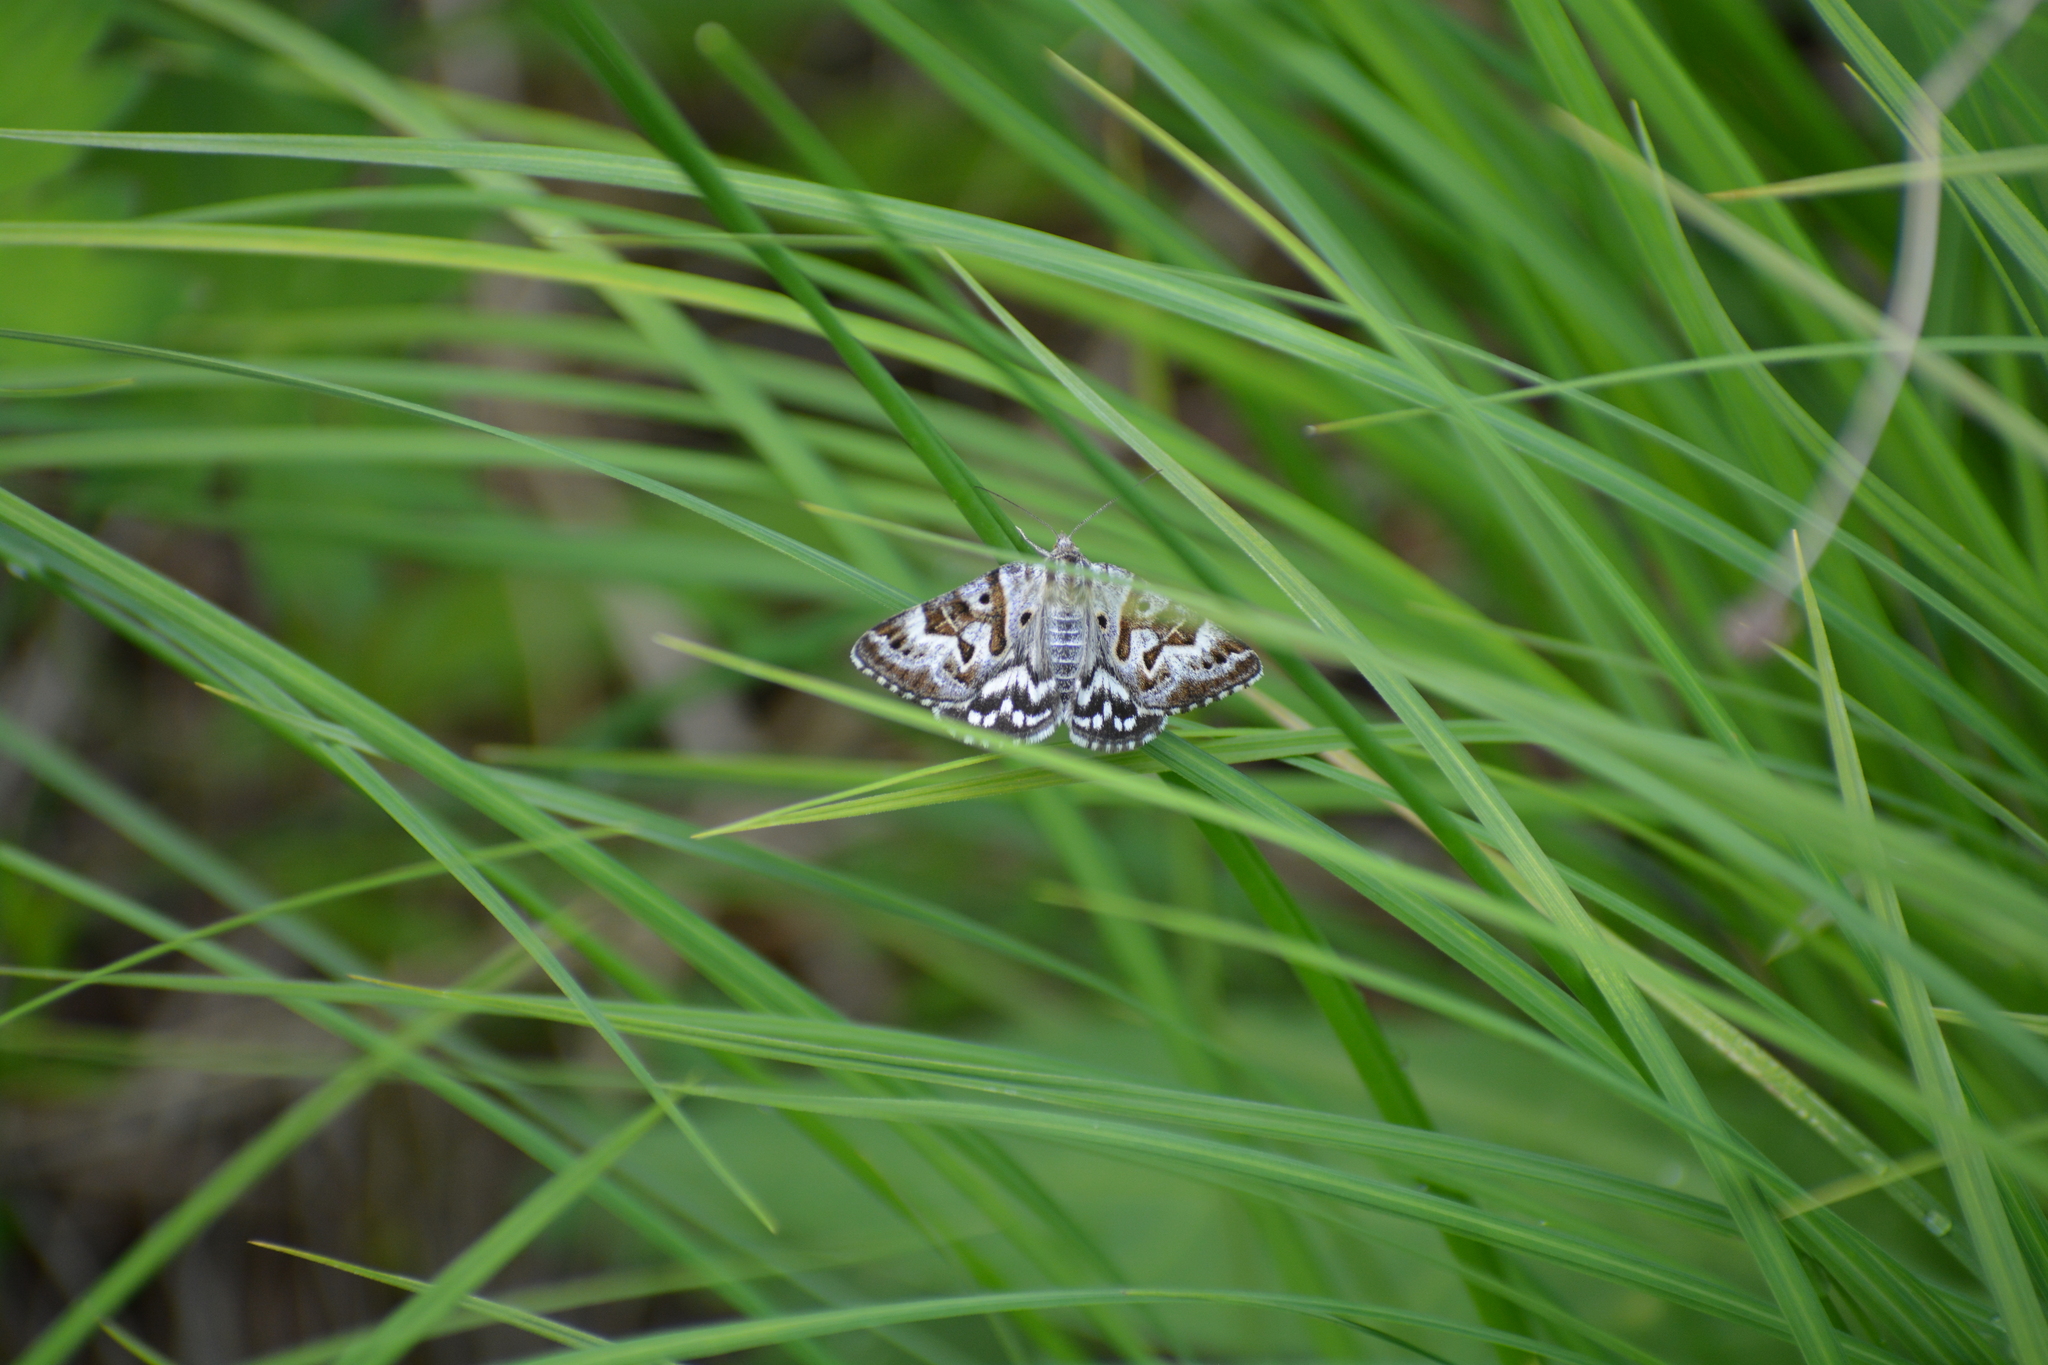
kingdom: Animalia
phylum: Arthropoda
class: Insecta
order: Lepidoptera
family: Erebidae
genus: Callistege
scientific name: Callistege mi
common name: Mother shipton
